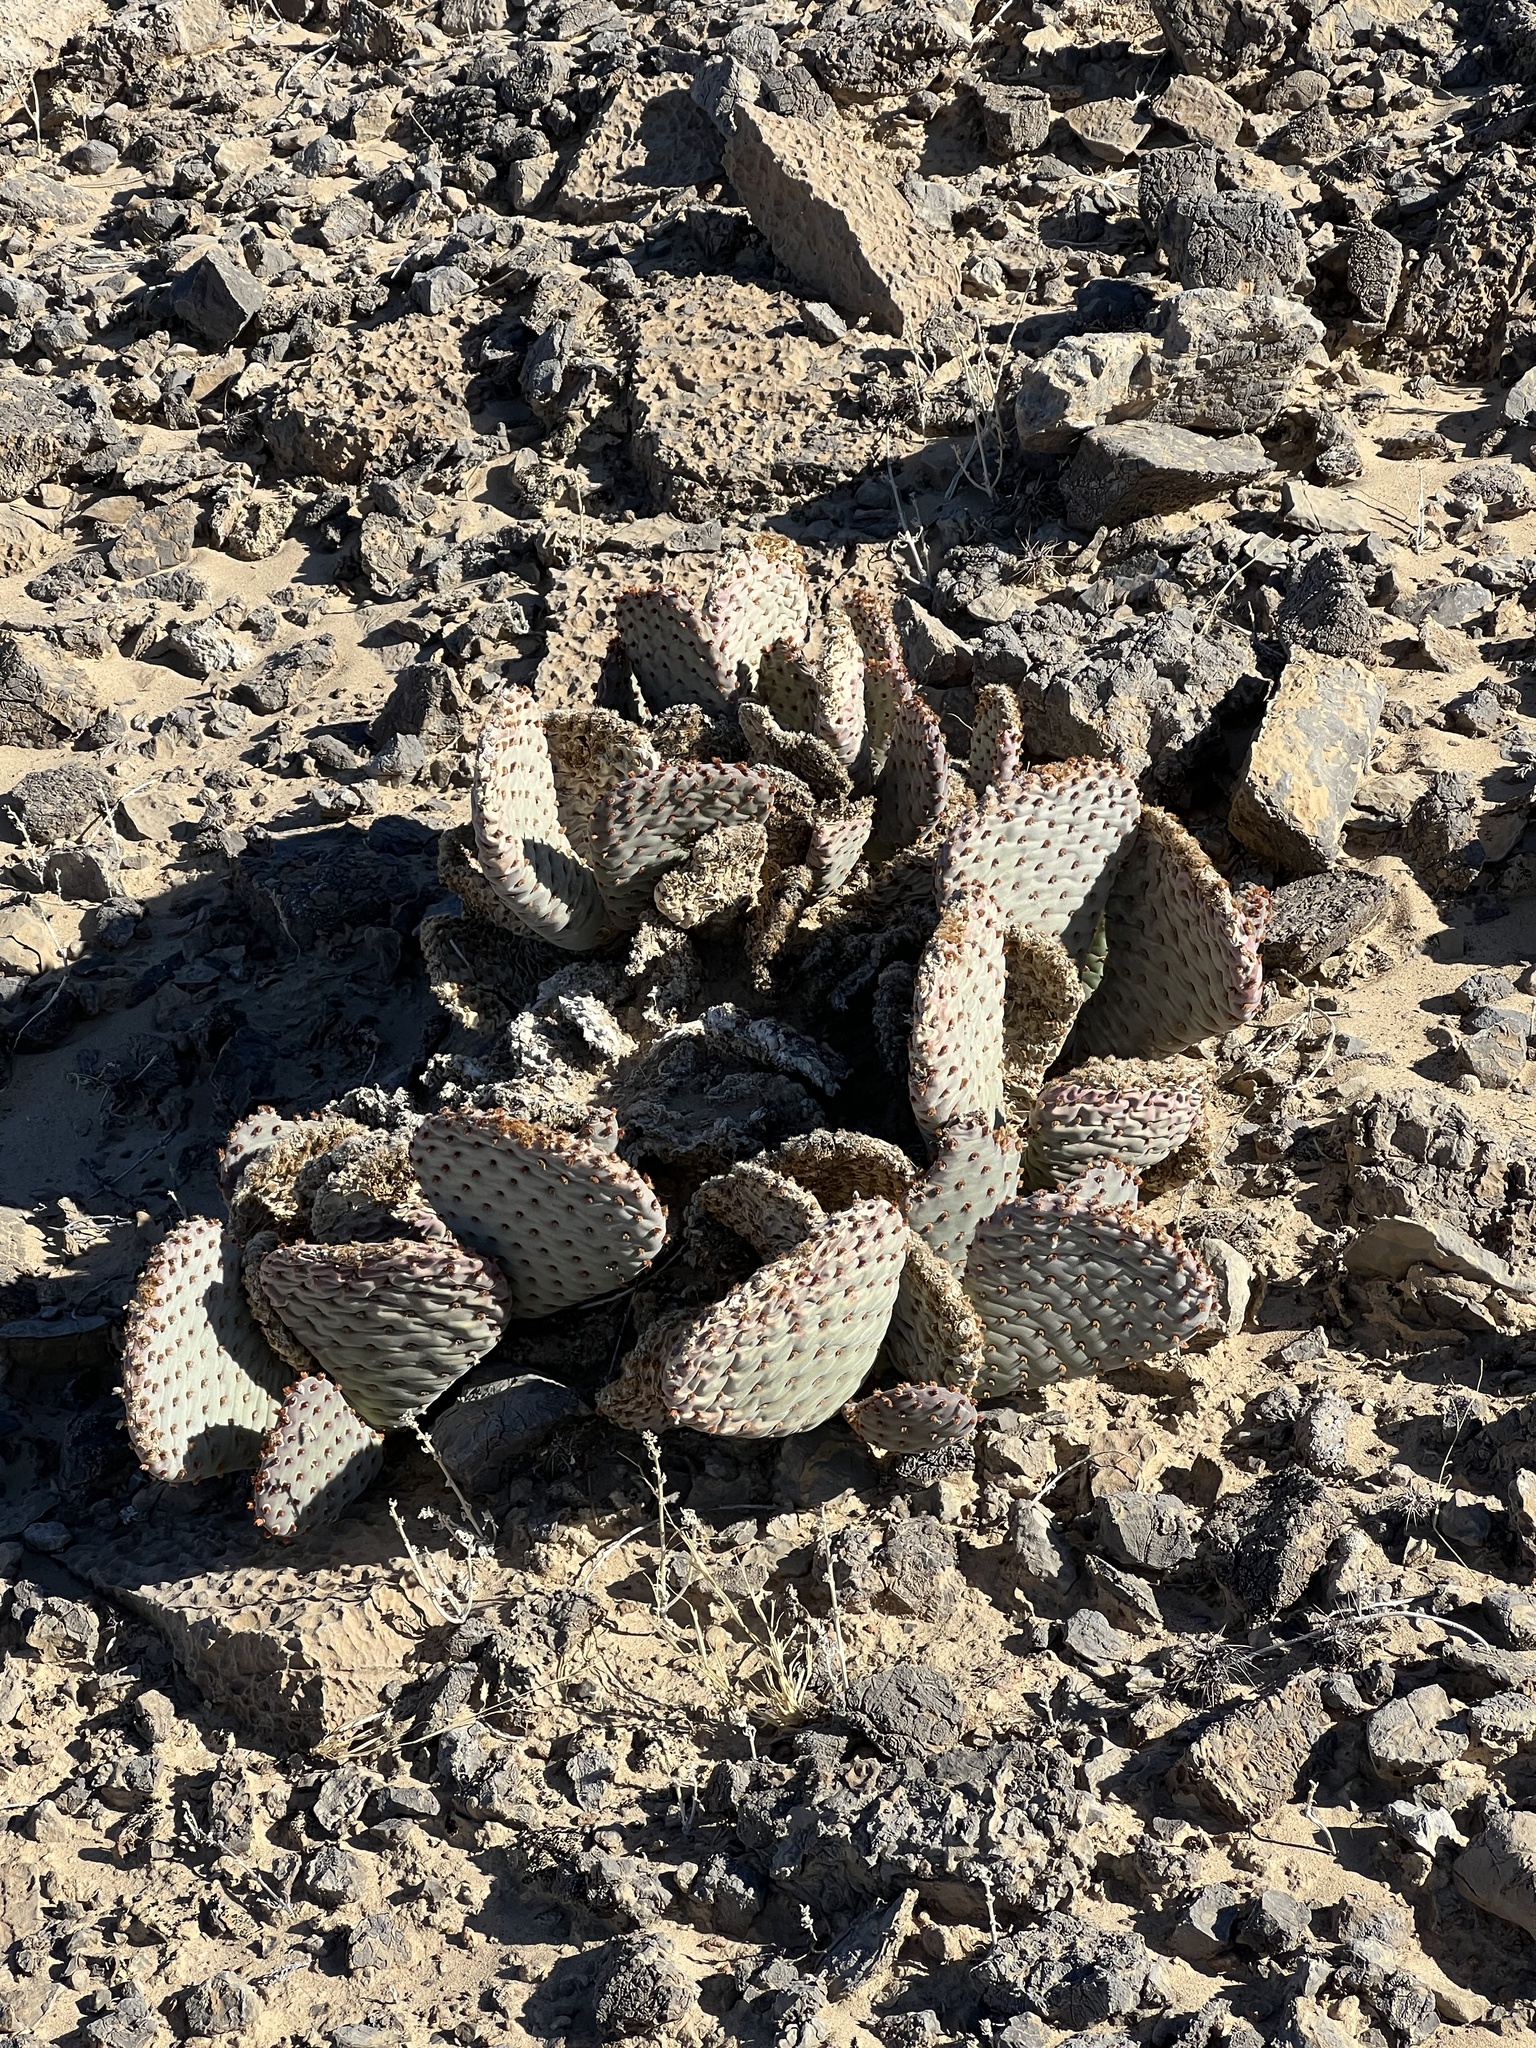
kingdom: Plantae
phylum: Tracheophyta
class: Magnoliopsida
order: Caryophyllales
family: Cactaceae
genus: Opuntia
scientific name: Opuntia basilaris
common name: Beavertail prickly-pear
